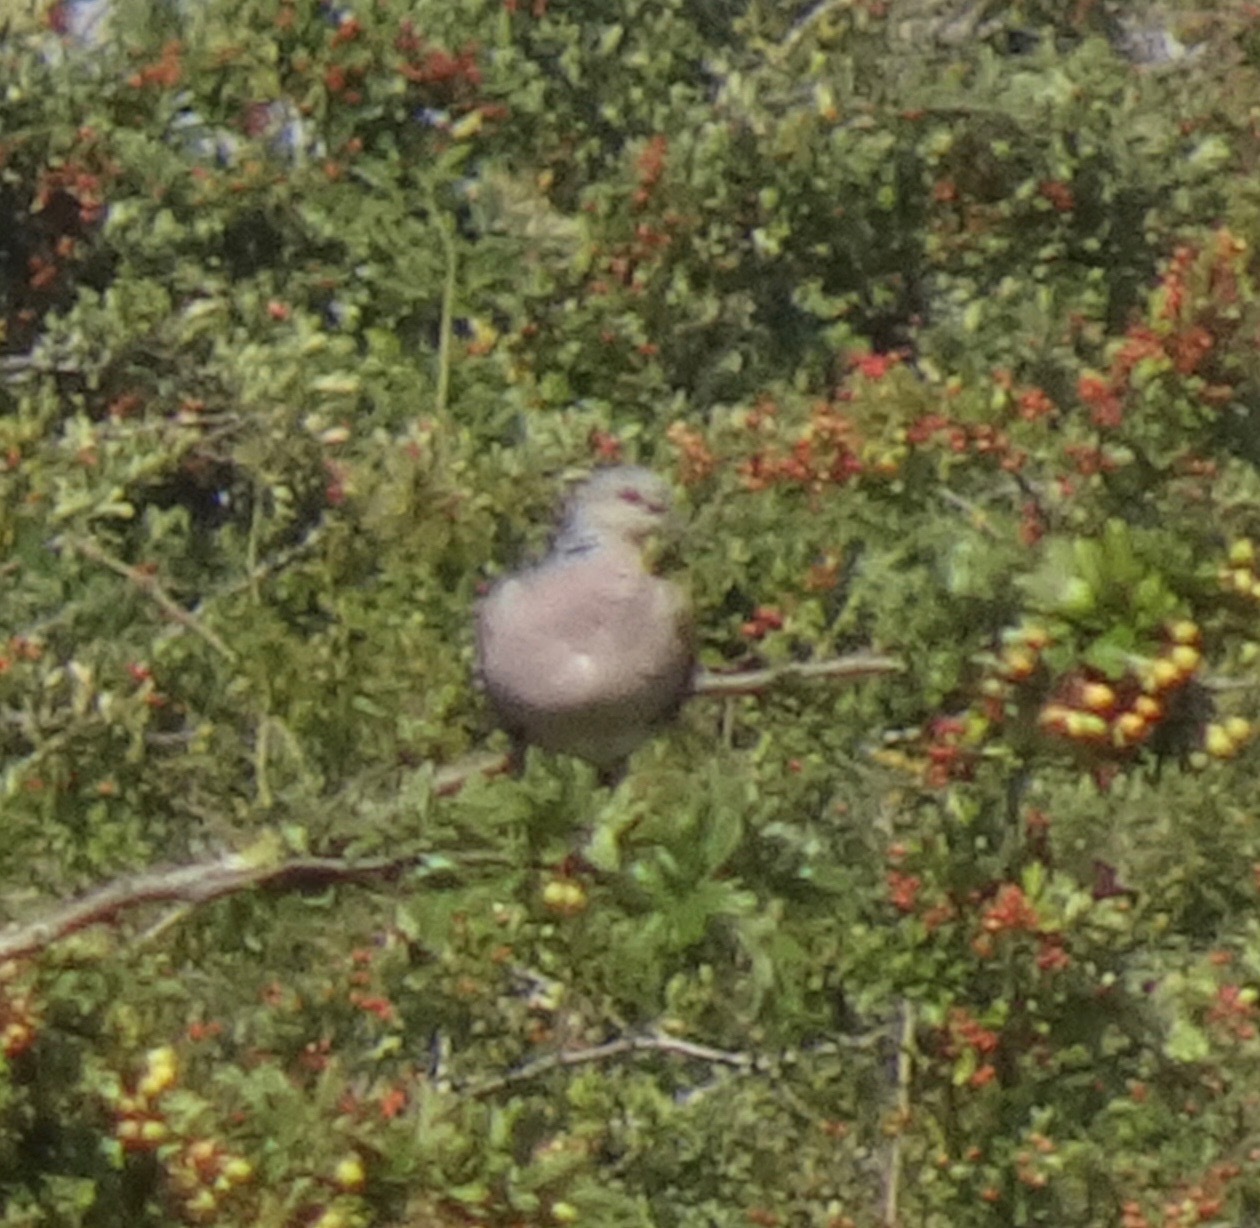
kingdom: Animalia
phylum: Chordata
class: Aves
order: Columbiformes
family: Columbidae
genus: Streptopelia
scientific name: Streptopelia turtur
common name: European turtle dove
